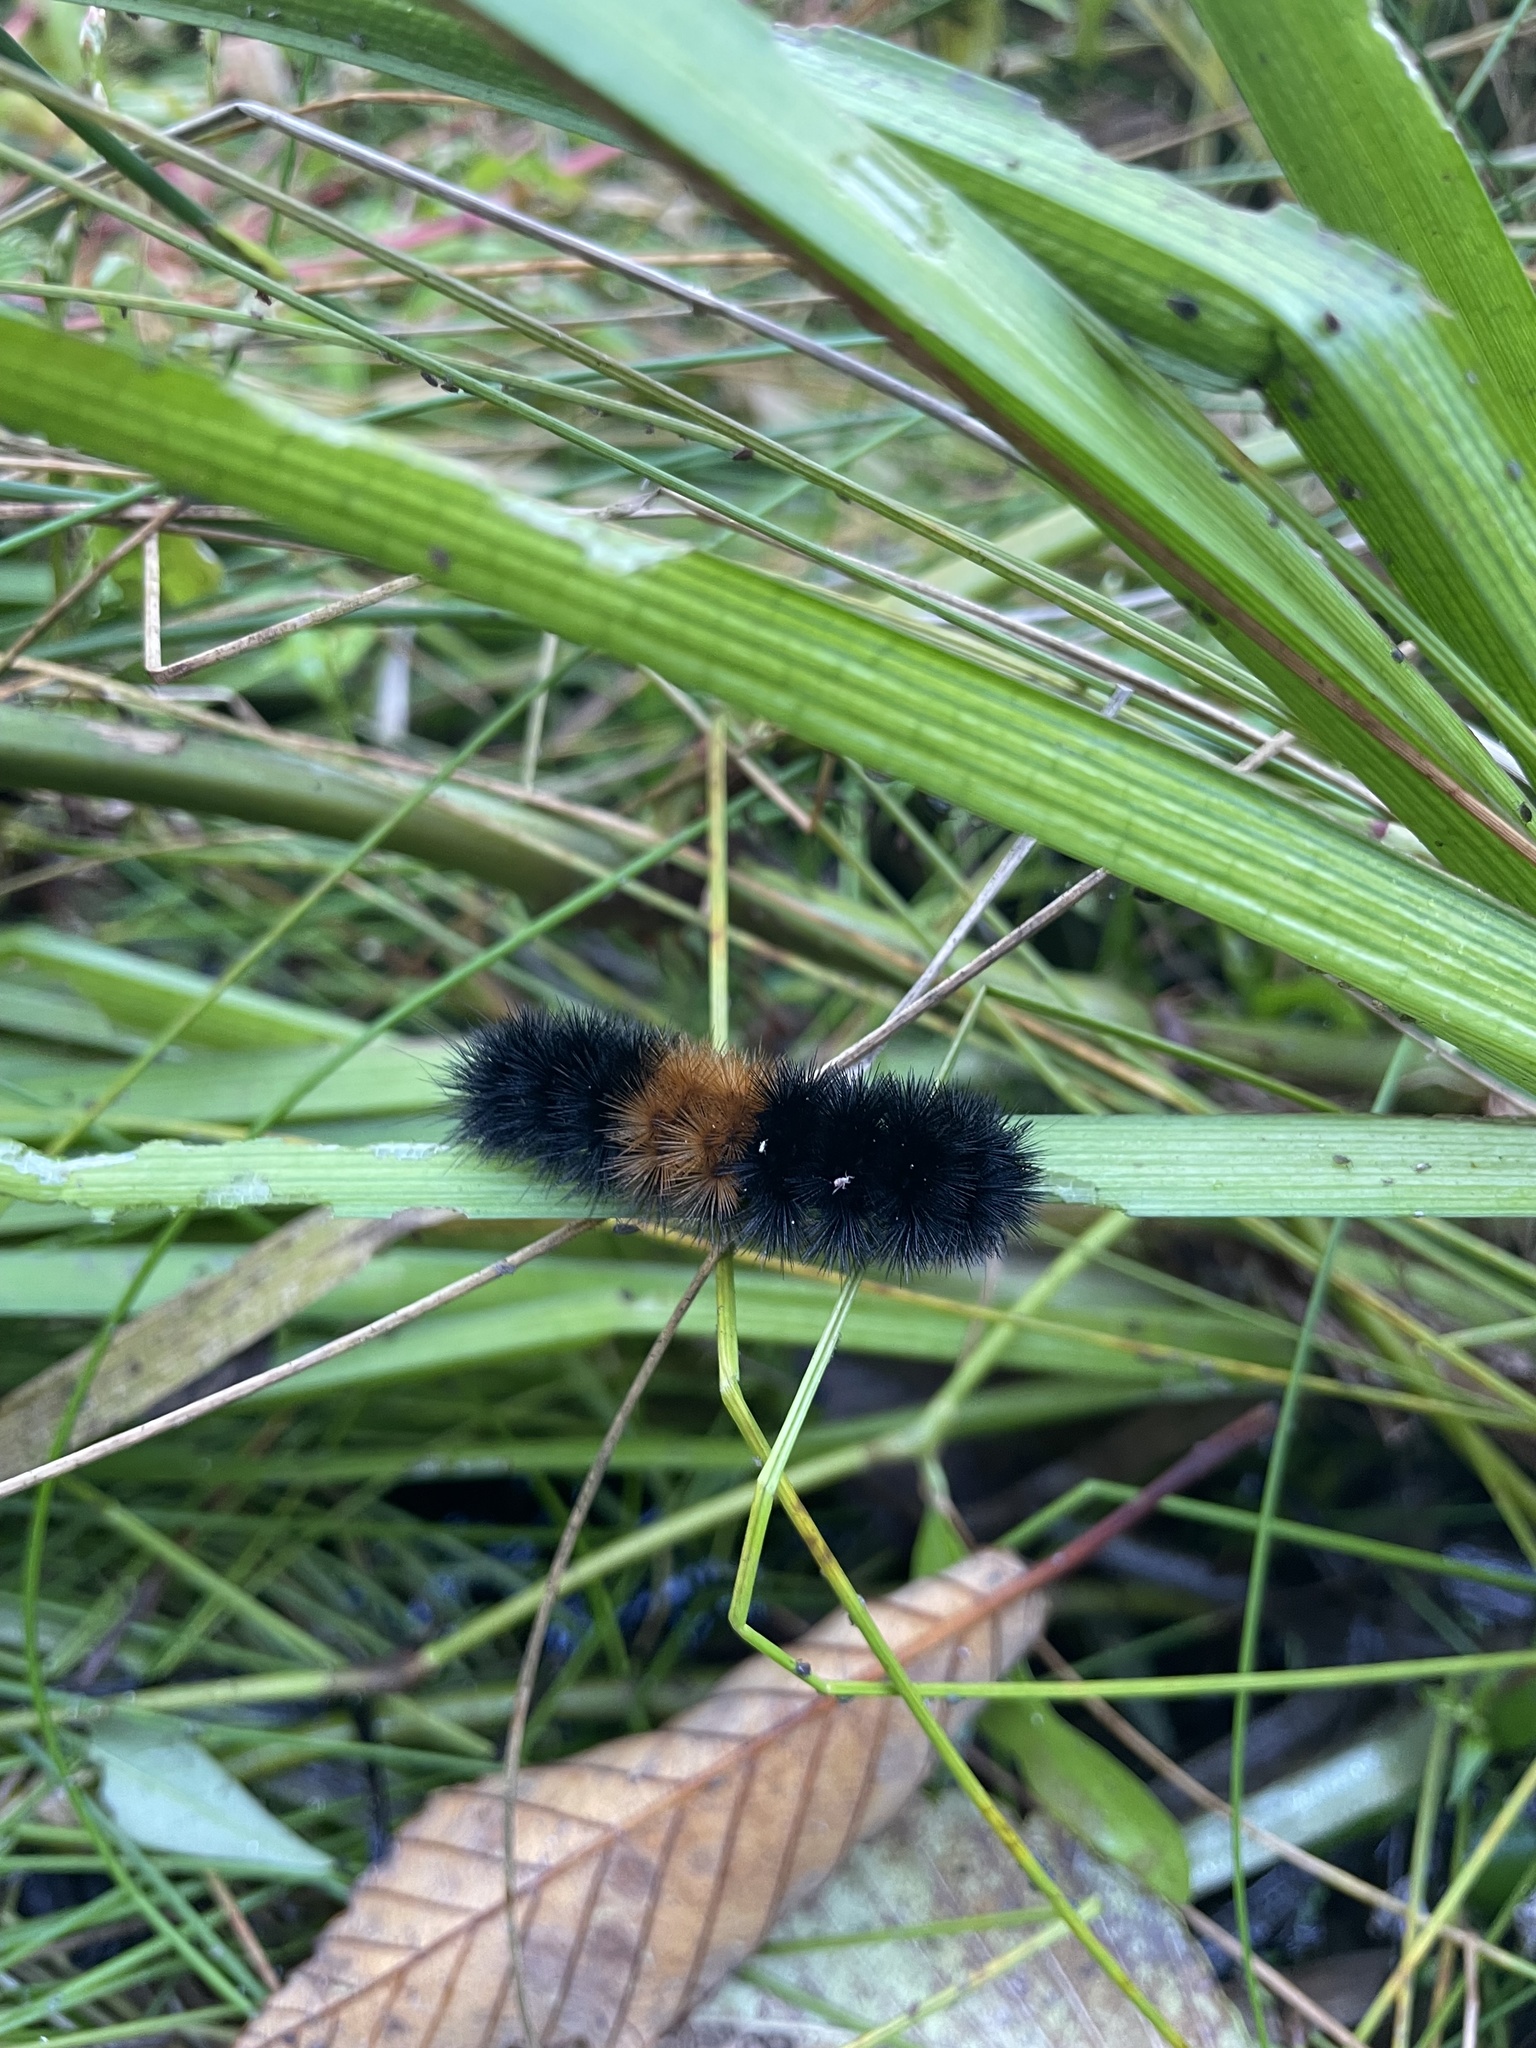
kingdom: Animalia
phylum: Arthropoda
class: Insecta
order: Lepidoptera
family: Erebidae
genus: Pyrrharctia
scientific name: Pyrrharctia isabella
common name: Isabella tiger moth
